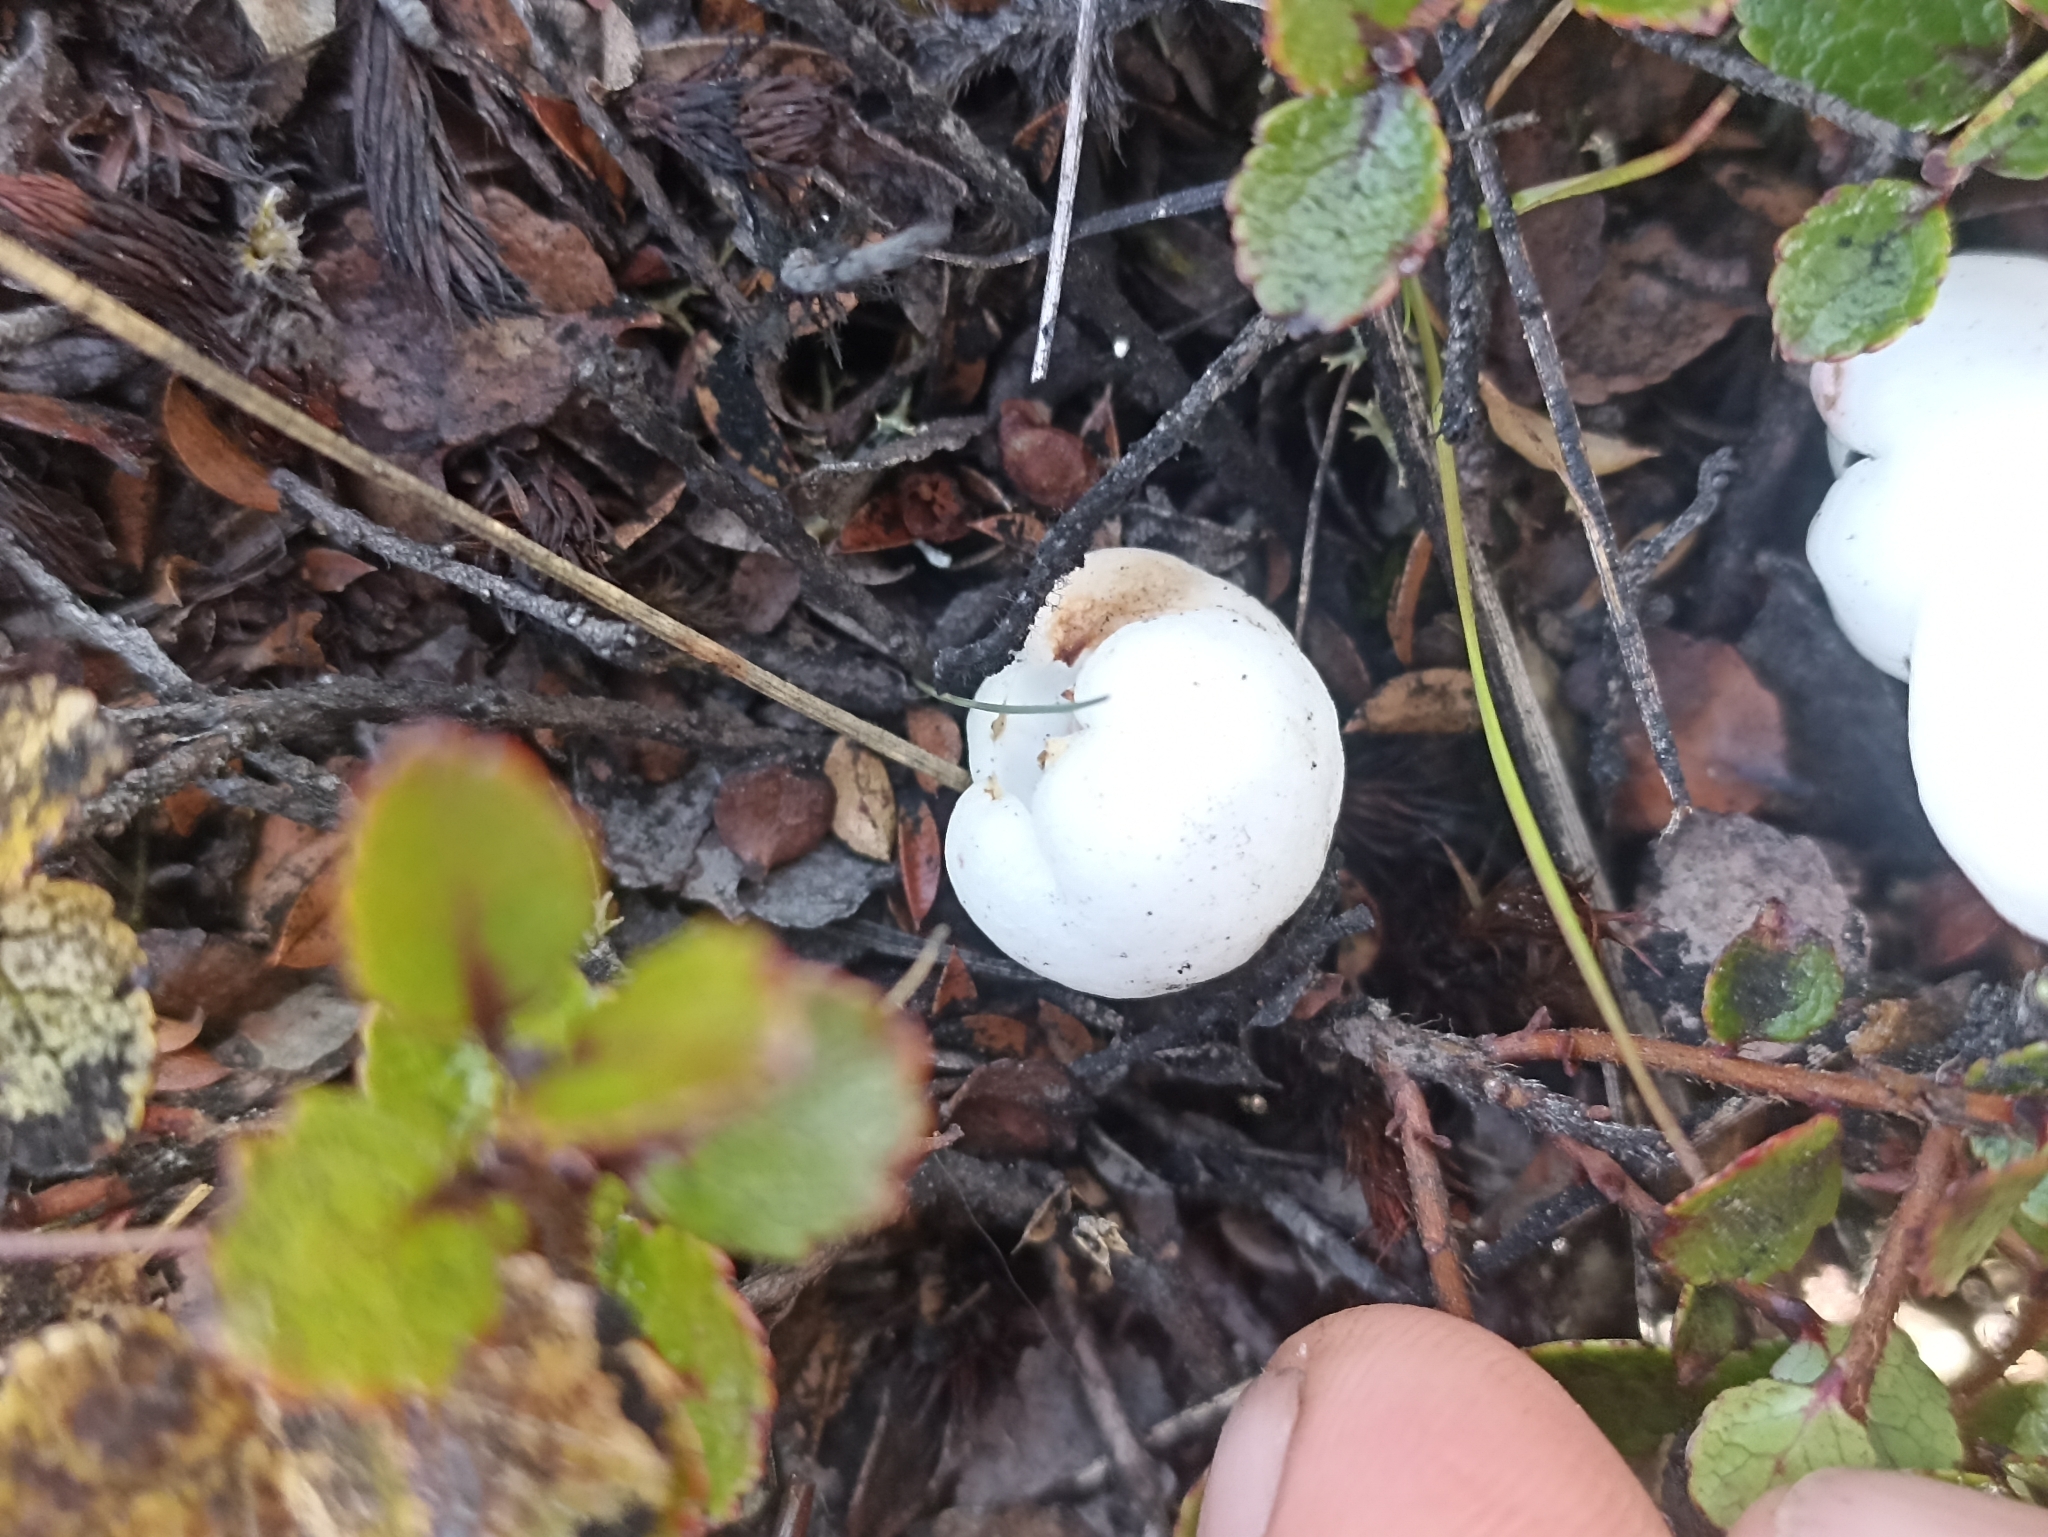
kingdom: Plantae
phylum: Tracheophyta
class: Magnoliopsida
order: Ericales
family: Ericaceae
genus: Gaultheria
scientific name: Gaultheria depressa
